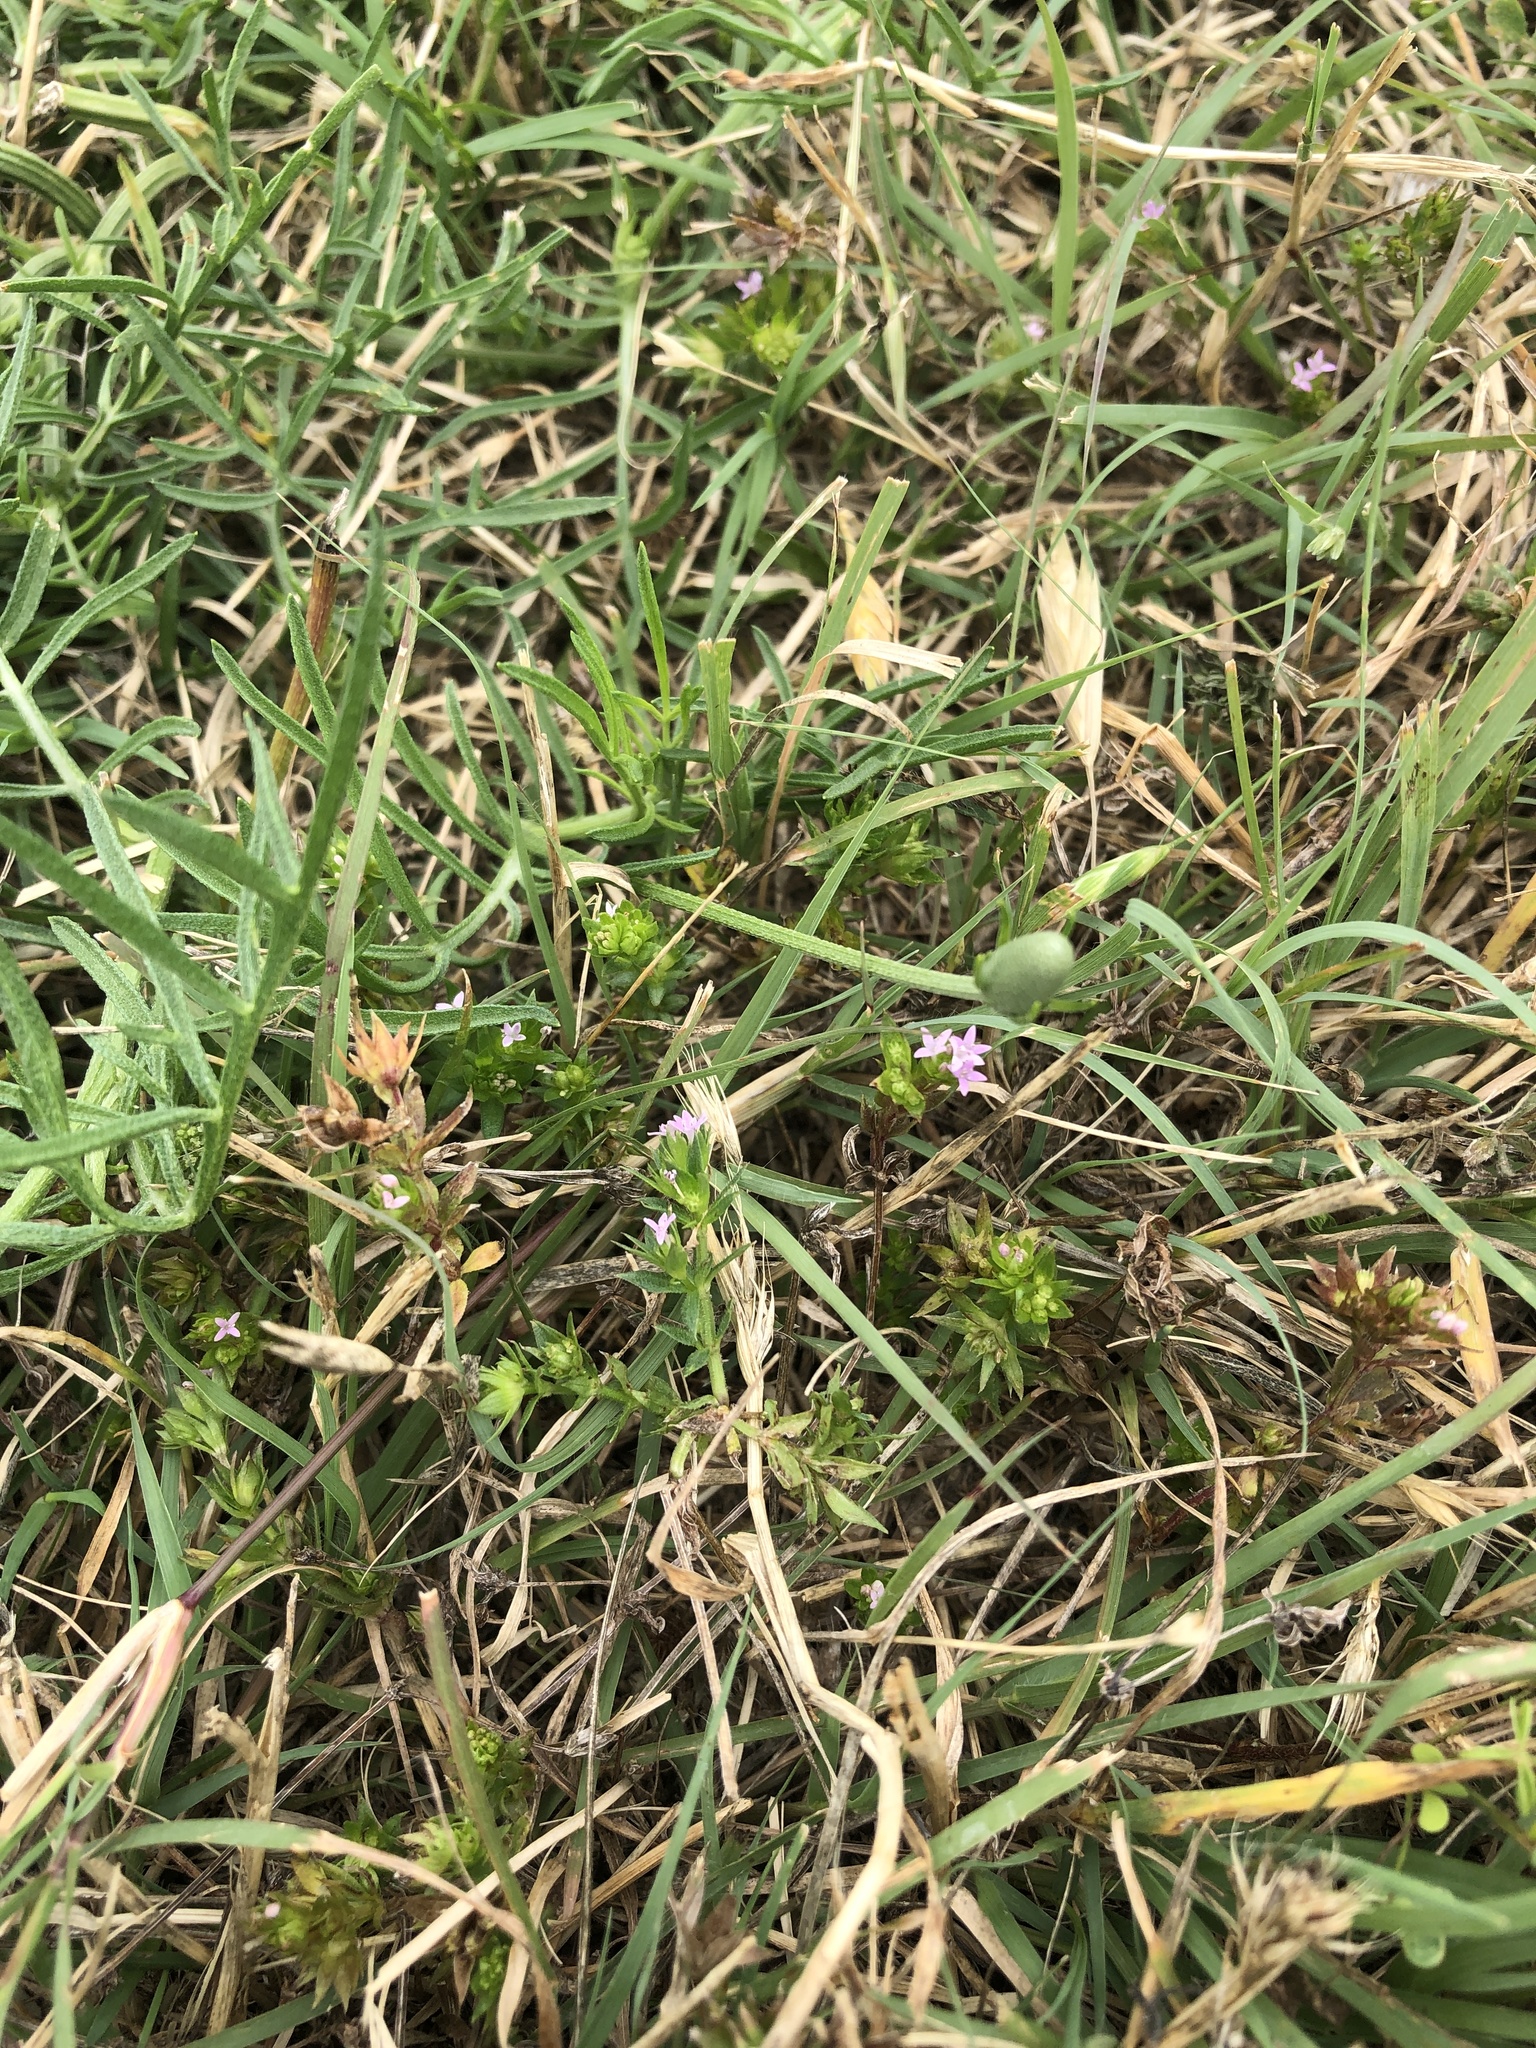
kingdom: Plantae
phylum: Tracheophyta
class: Magnoliopsida
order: Gentianales
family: Rubiaceae
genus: Sherardia
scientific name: Sherardia arvensis
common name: Field madder
